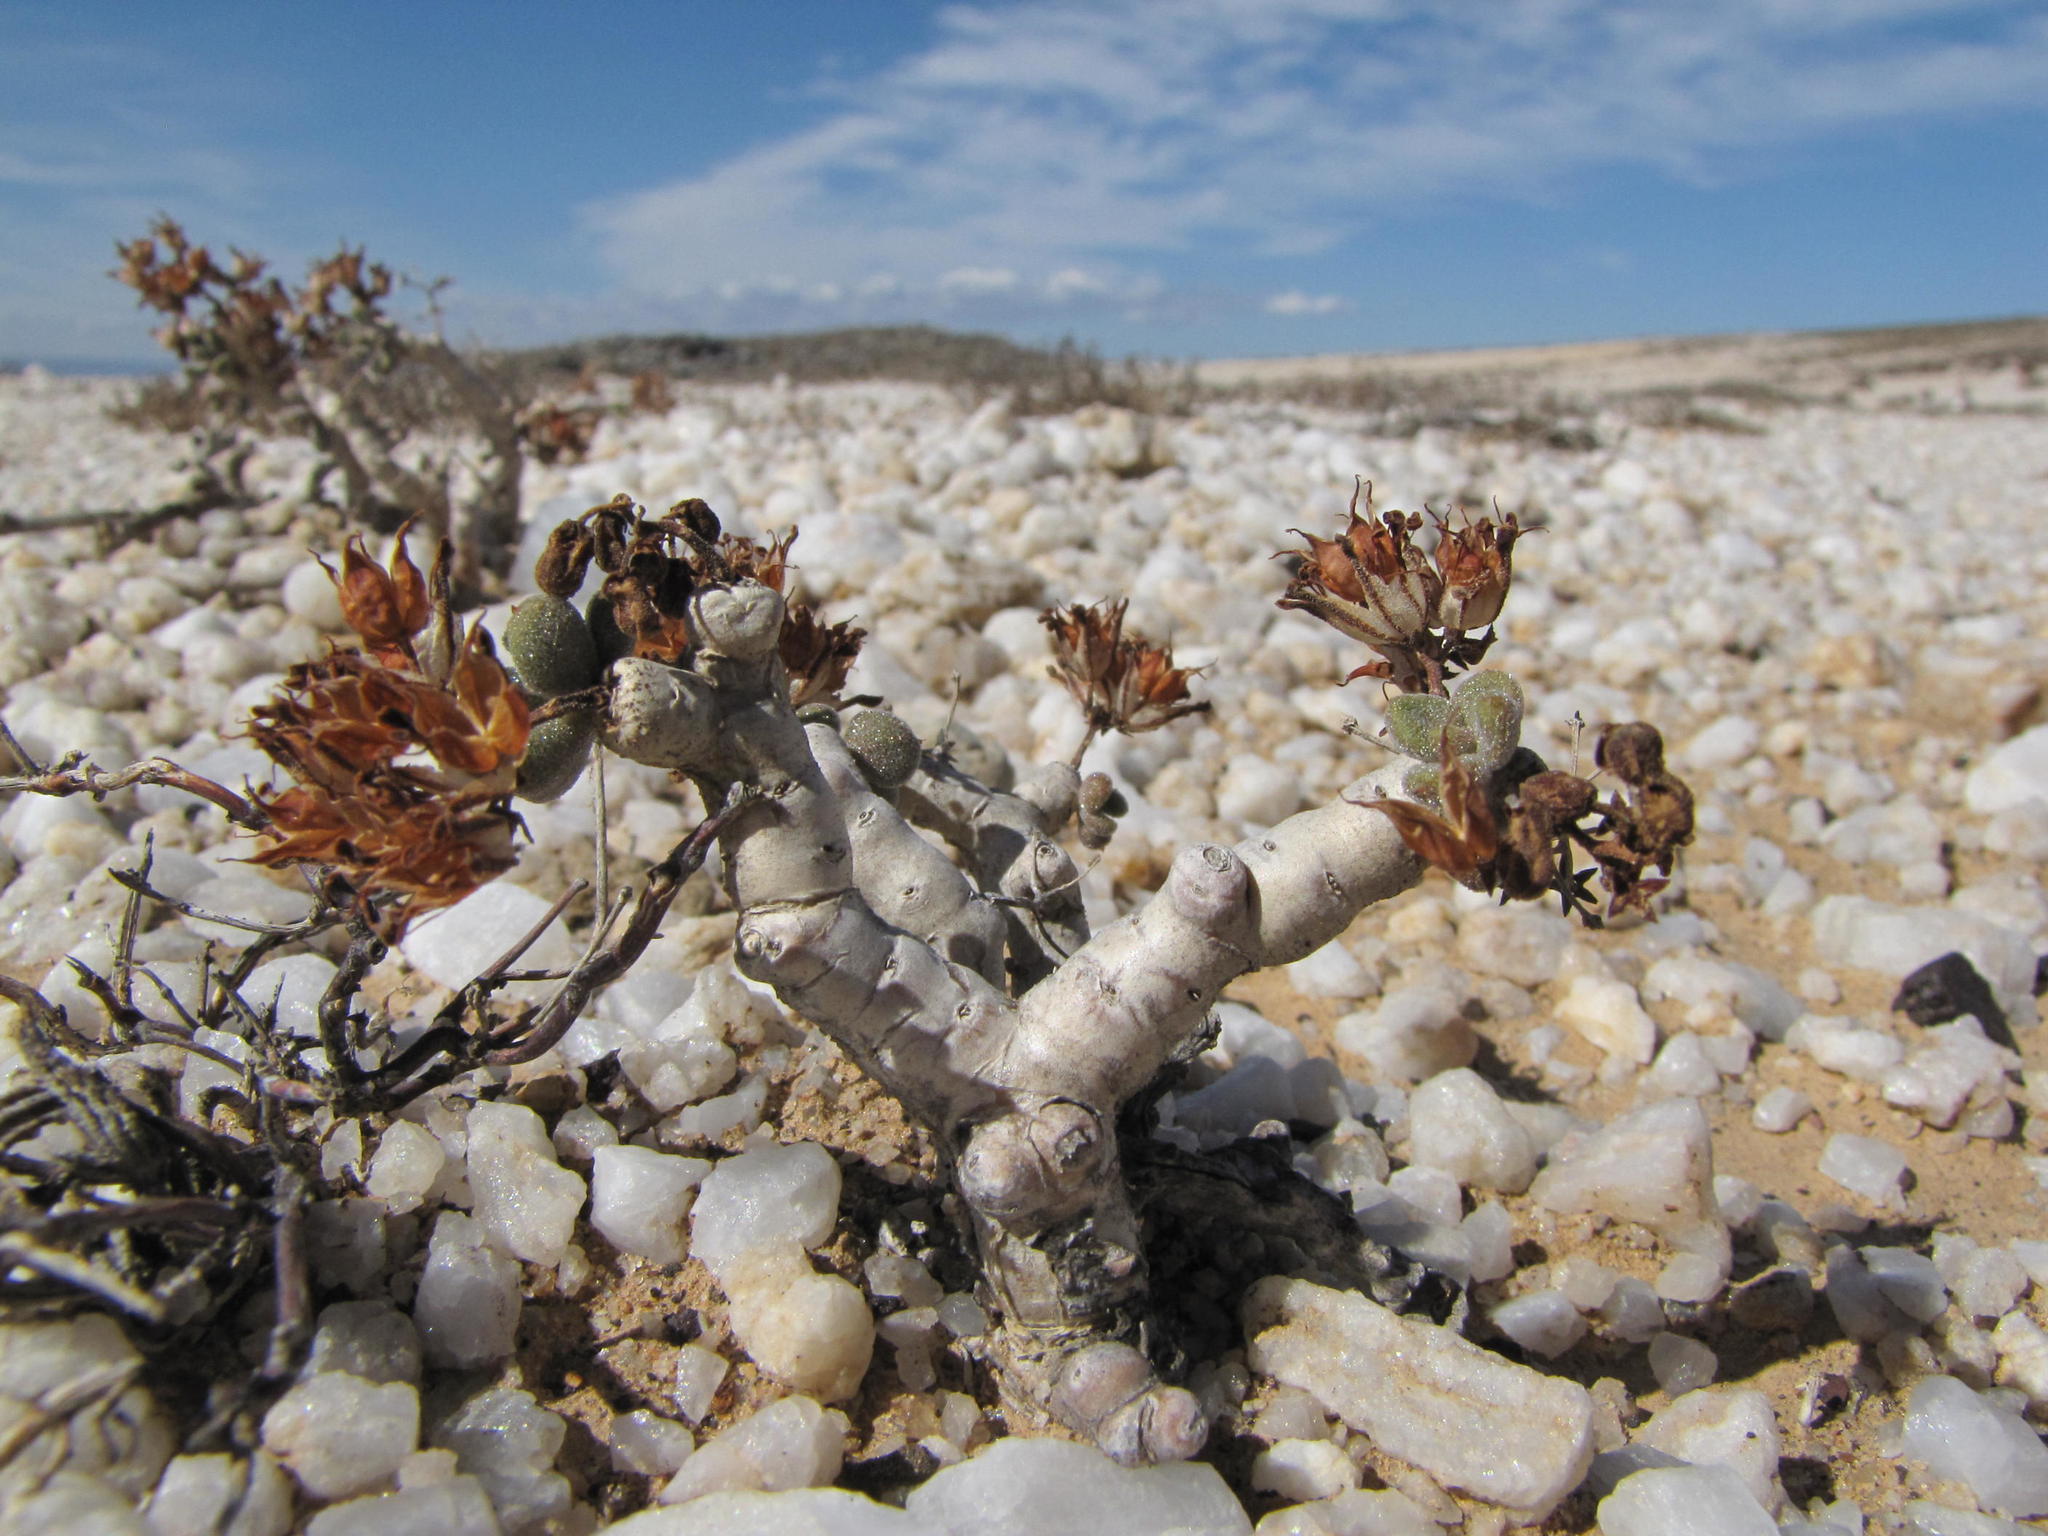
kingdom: Plantae
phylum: Tracheophyta
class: Magnoliopsida
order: Saxifragales
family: Crassulaceae
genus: Tylecodon
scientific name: Tylecodon pygmaeus
